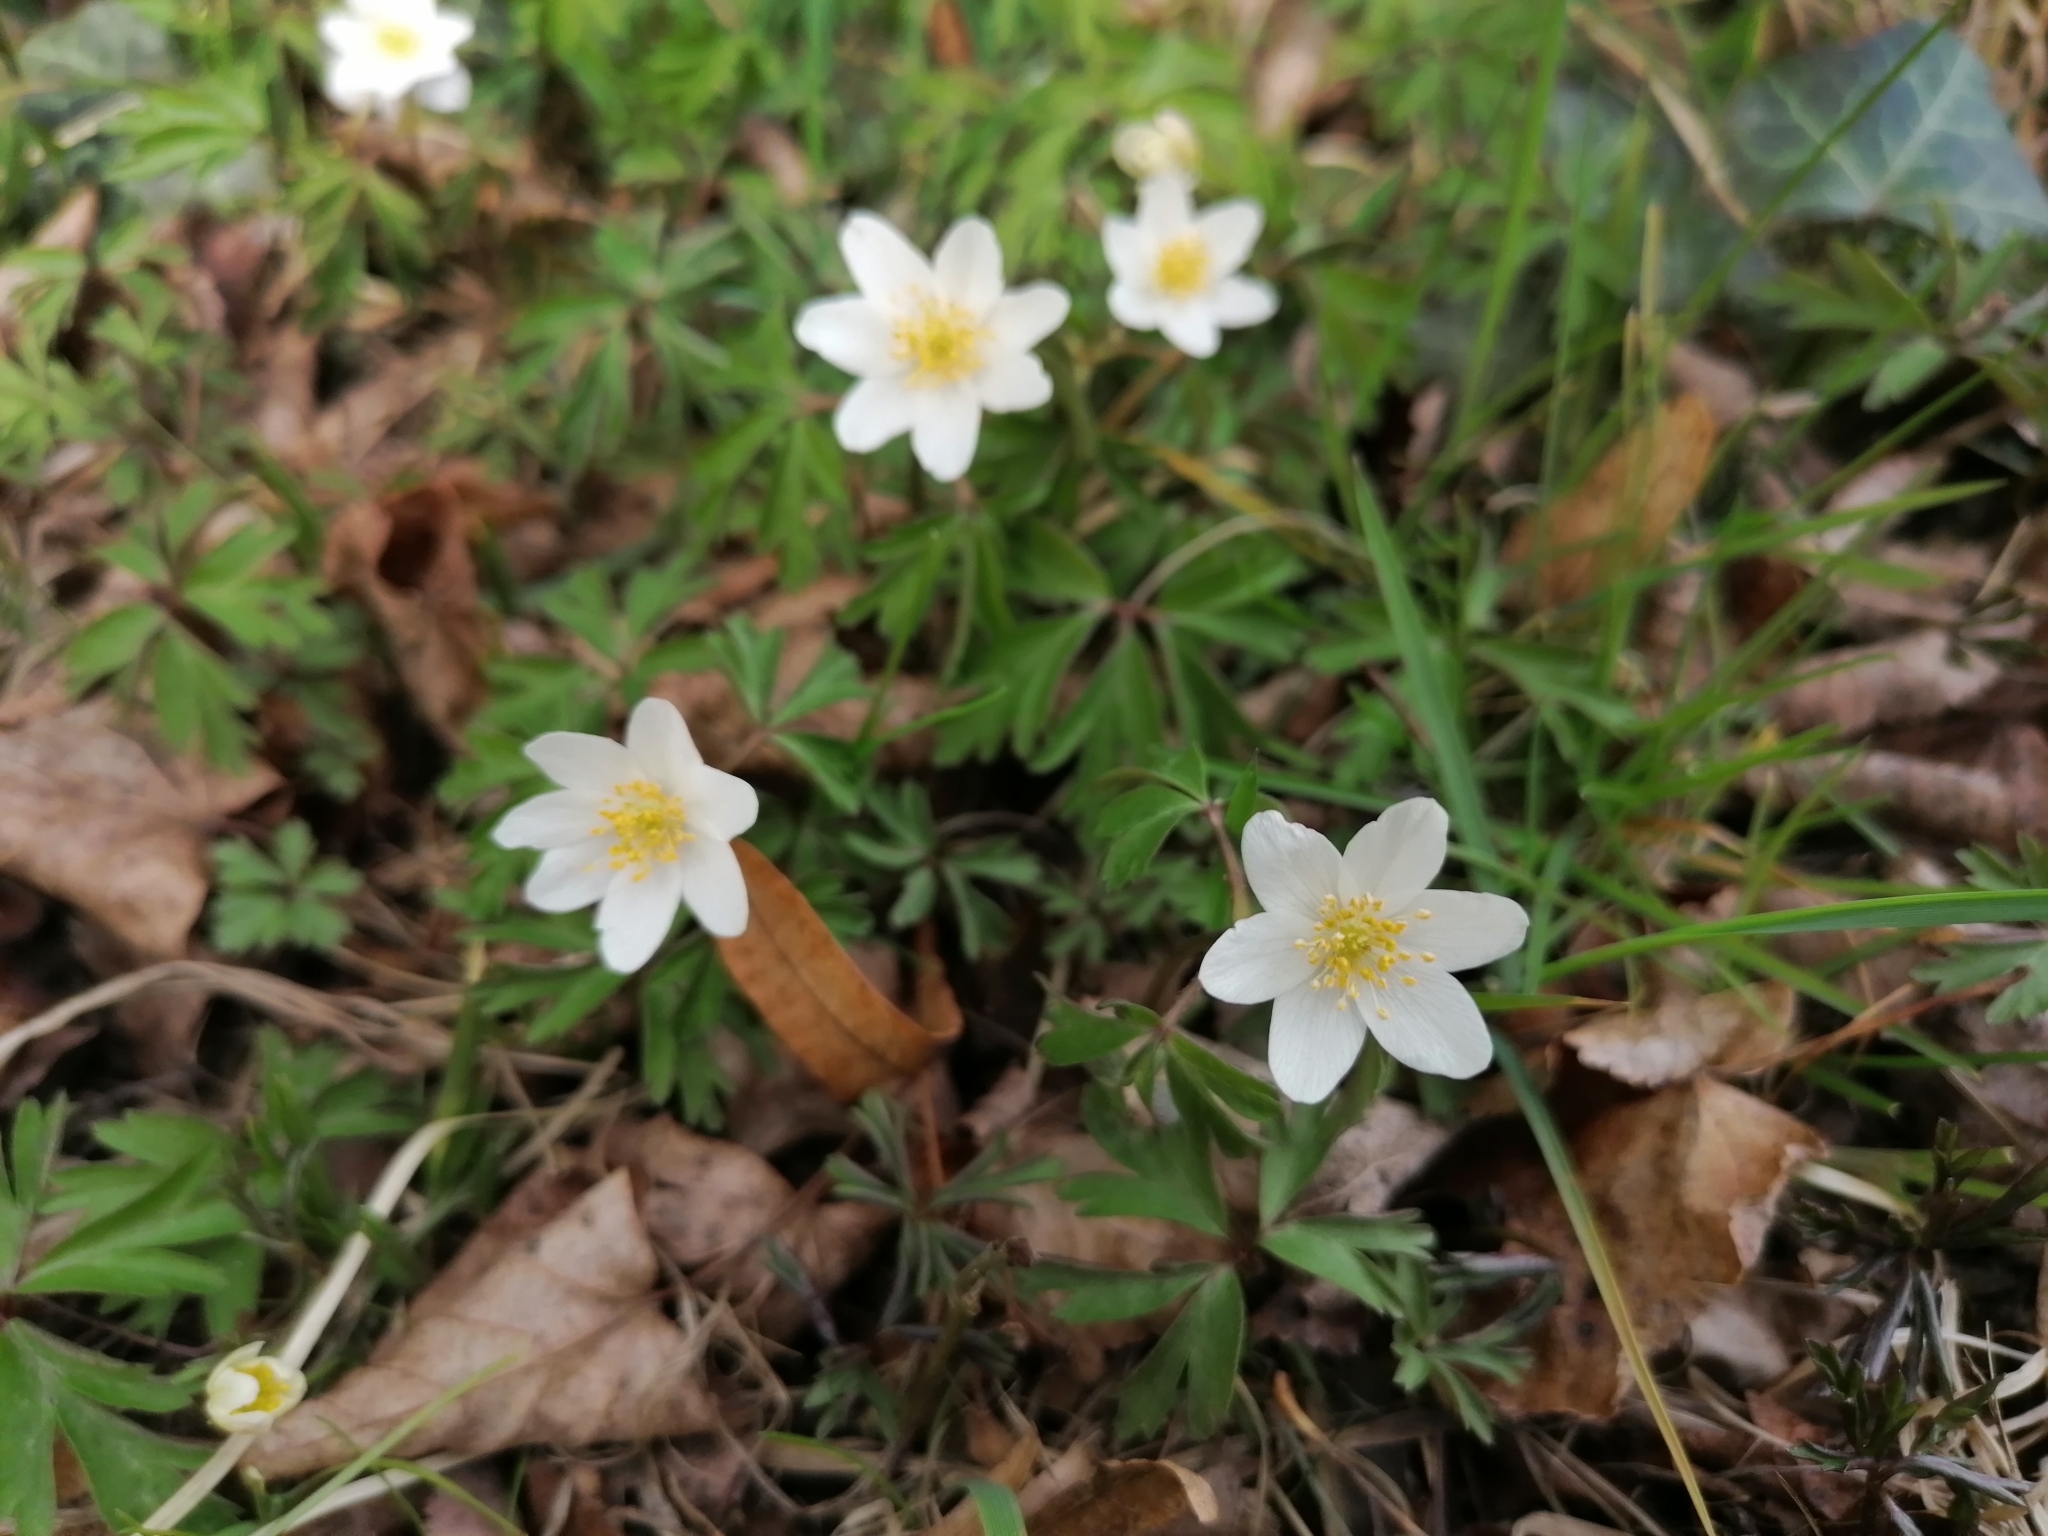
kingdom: Plantae
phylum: Tracheophyta
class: Magnoliopsida
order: Ranunculales
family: Ranunculaceae
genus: Anemone
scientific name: Anemone nemorosa
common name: Wood anemone
